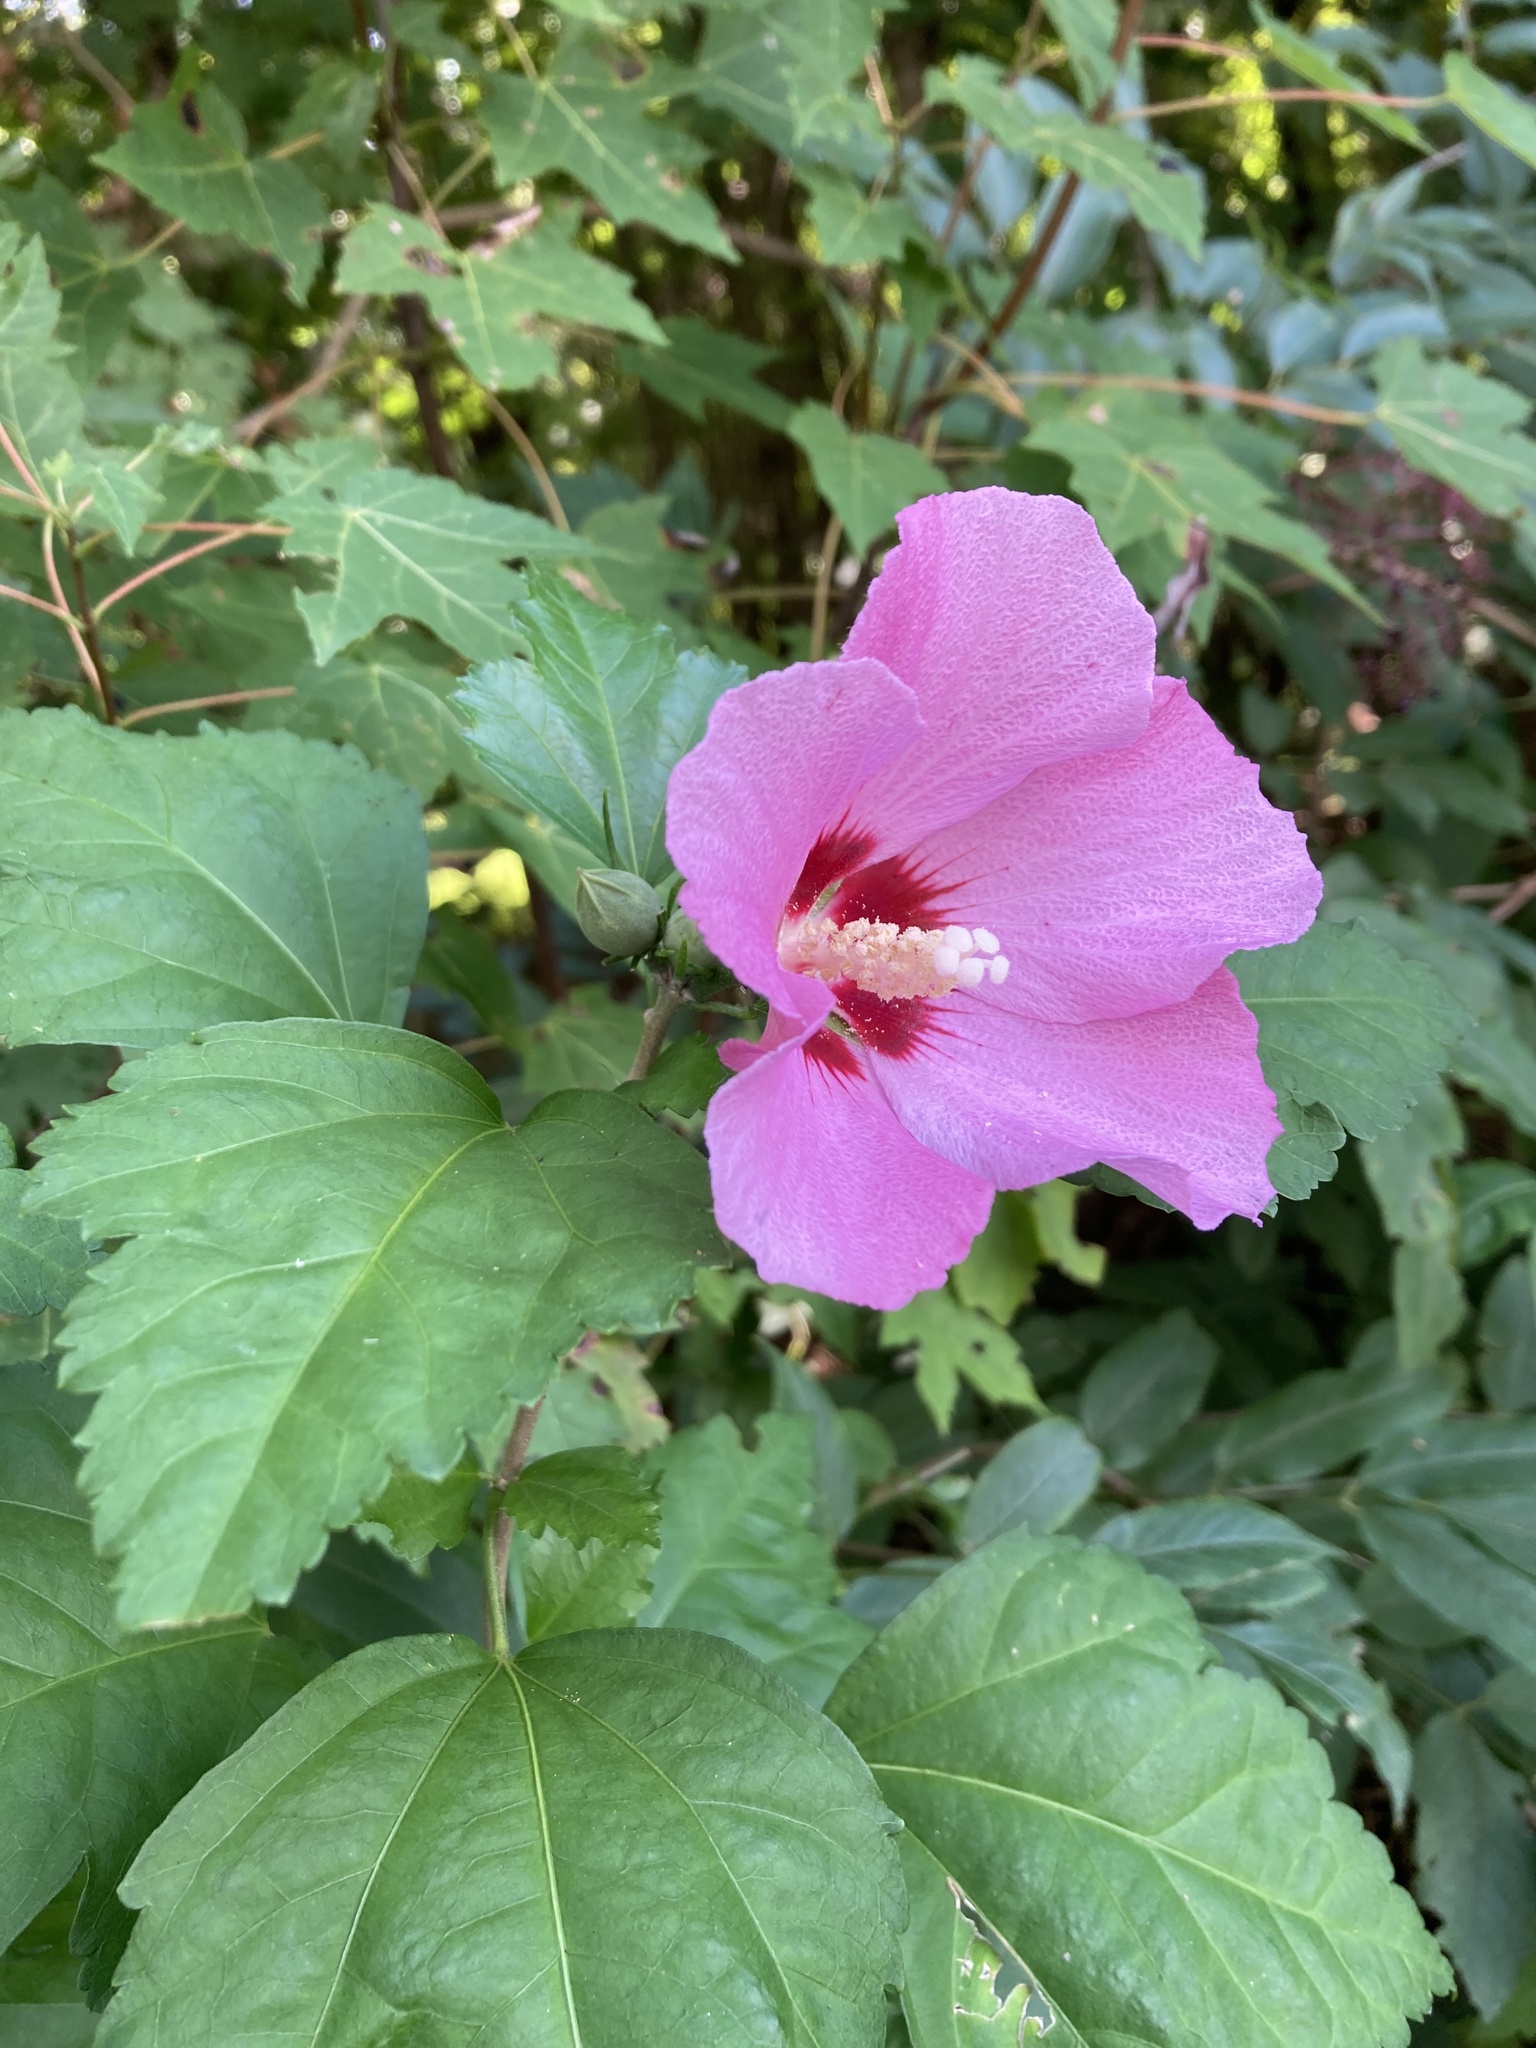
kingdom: Plantae
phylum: Tracheophyta
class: Magnoliopsida
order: Malvales
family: Malvaceae
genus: Hibiscus
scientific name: Hibiscus syriacus
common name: Syrian ketmia
